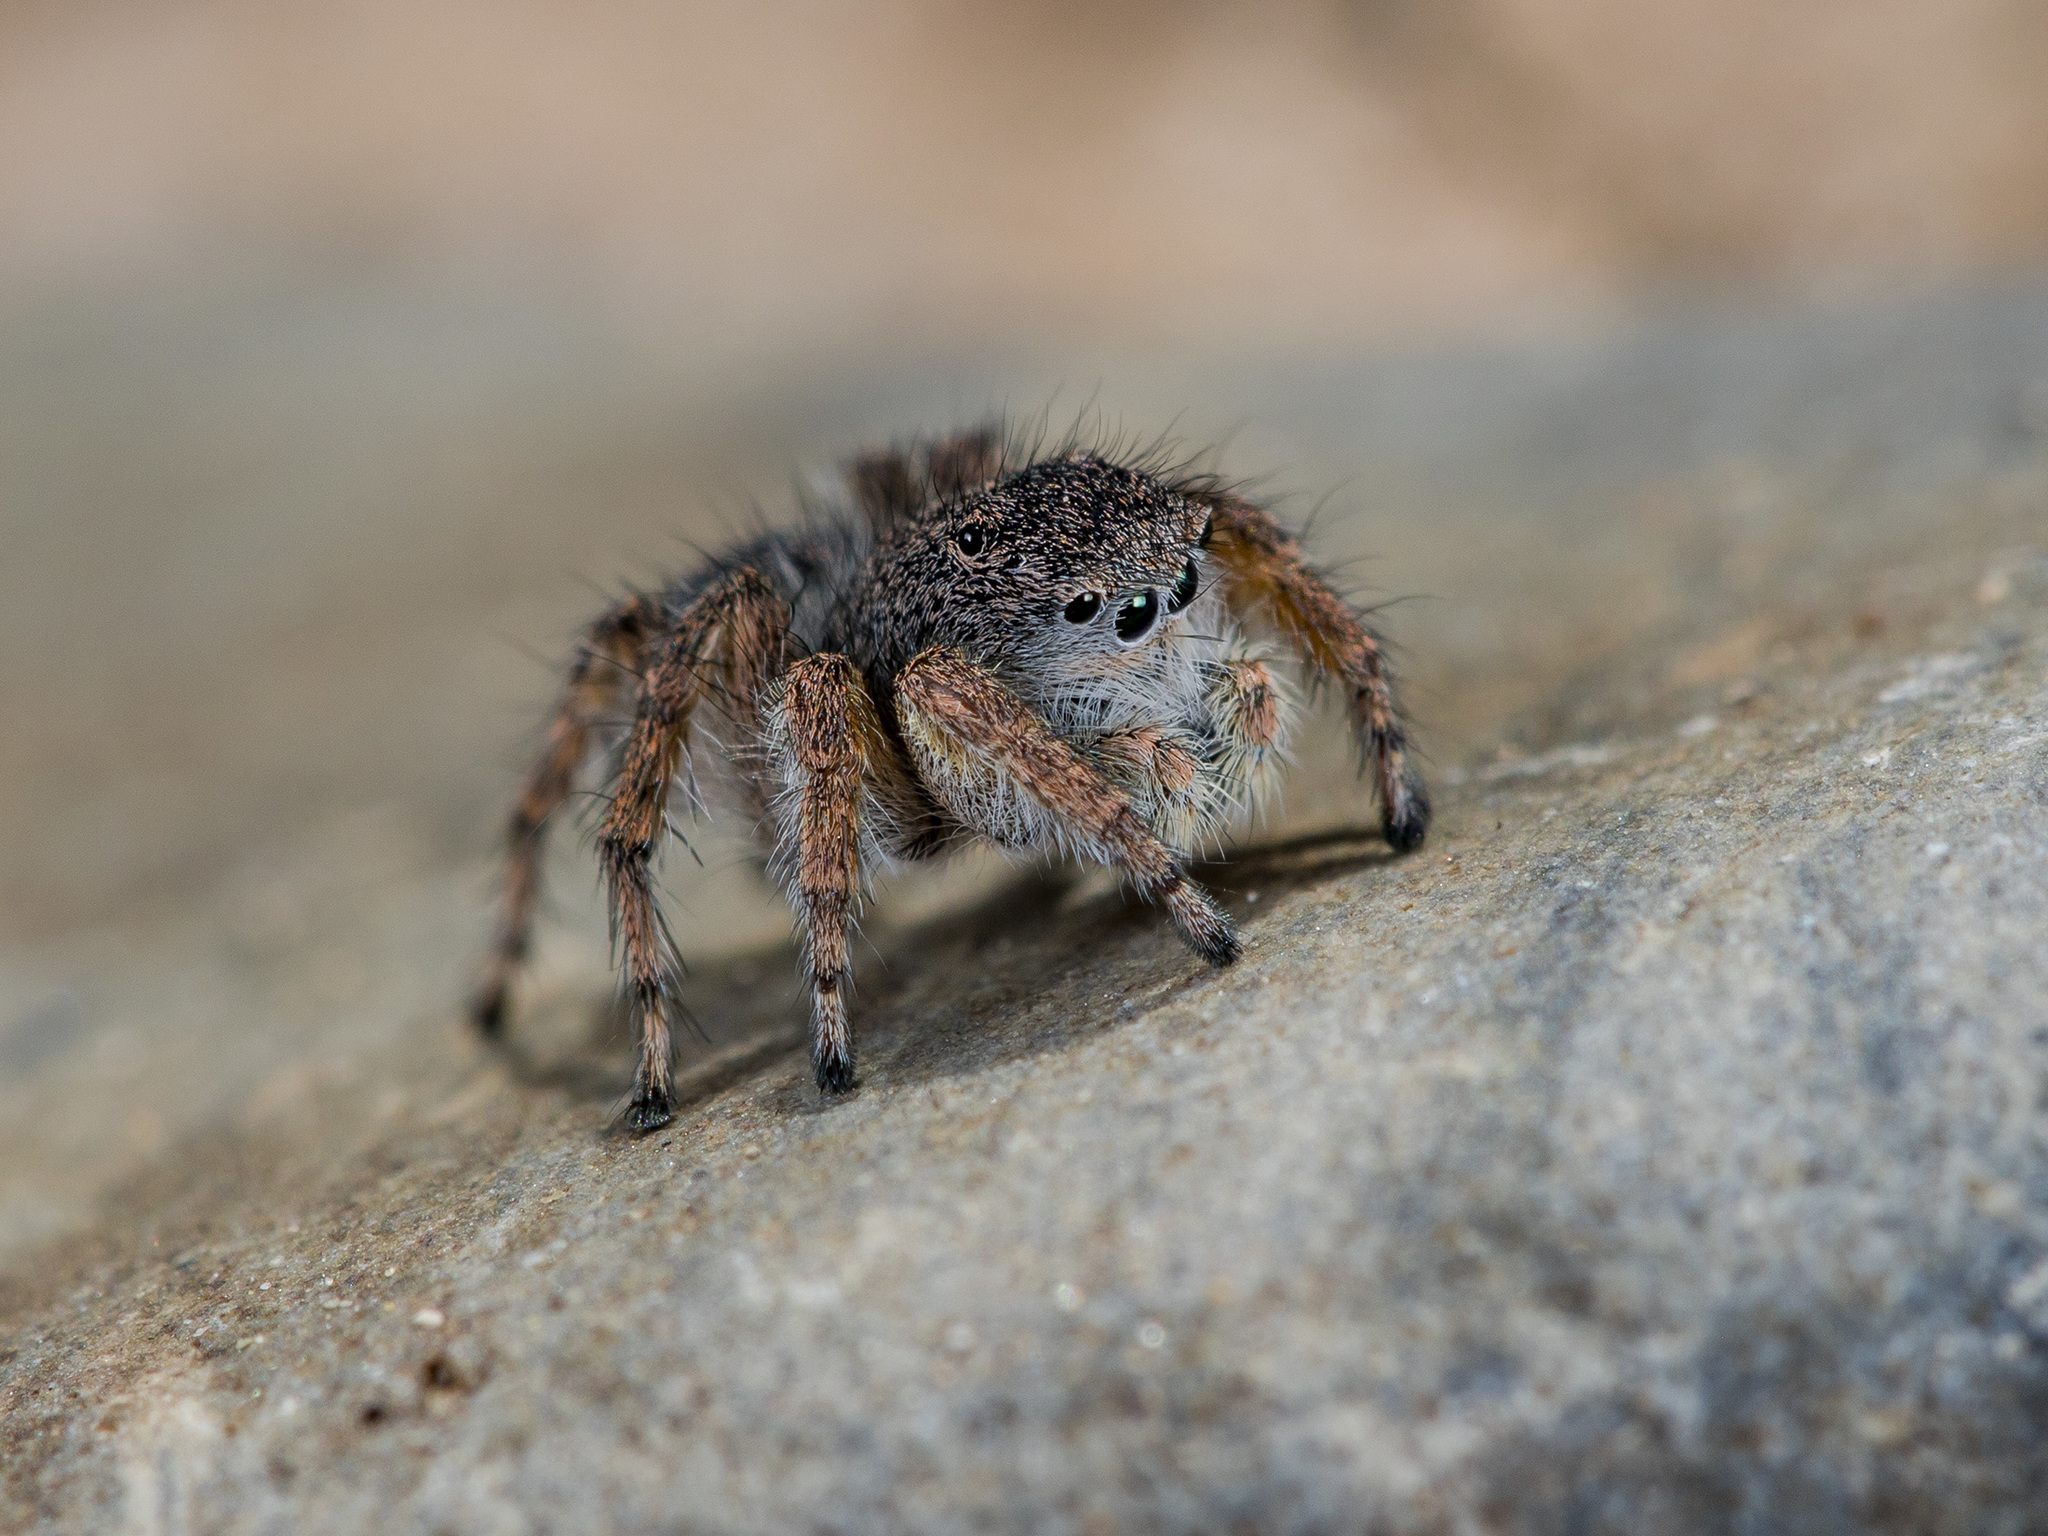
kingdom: Animalia
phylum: Arthropoda
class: Arachnida
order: Araneae
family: Salticidae
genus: Aelurillus
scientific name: Aelurillus dubatolovi
